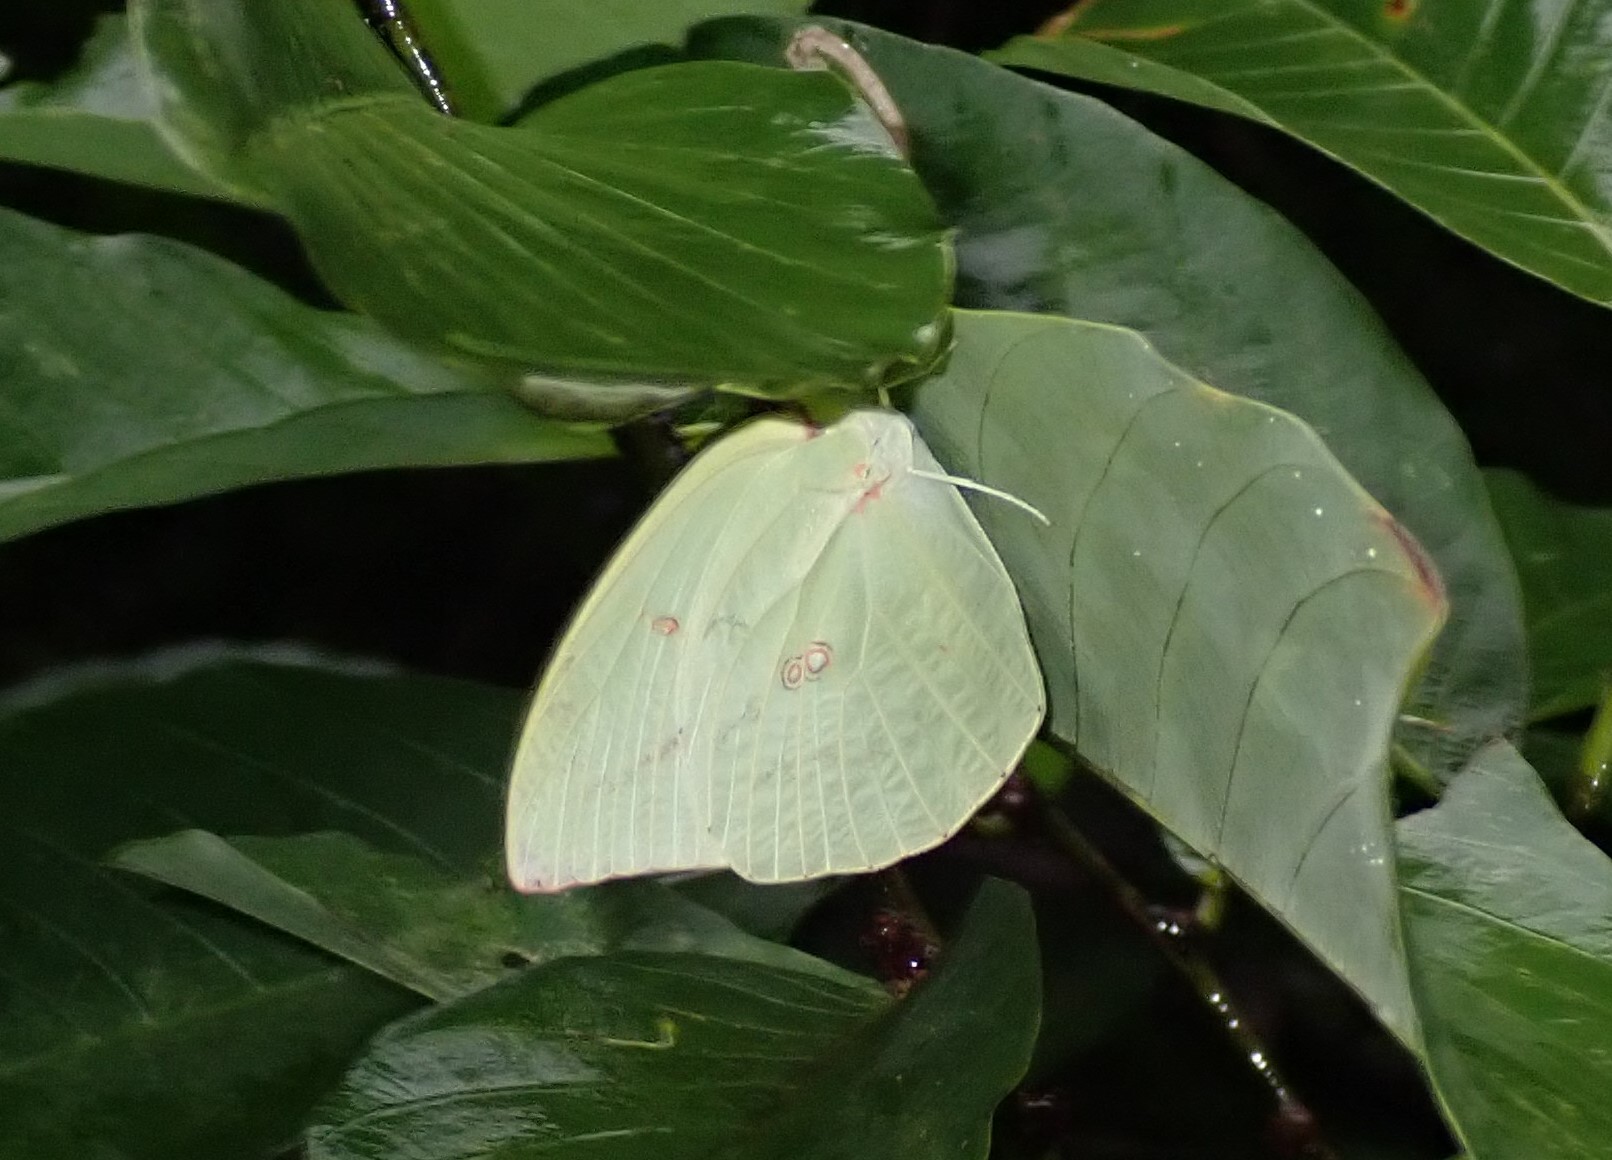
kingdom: Animalia
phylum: Arthropoda
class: Insecta
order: Lepidoptera
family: Pieridae
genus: Catopsilia
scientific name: Catopsilia pomona
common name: Common emigrant
